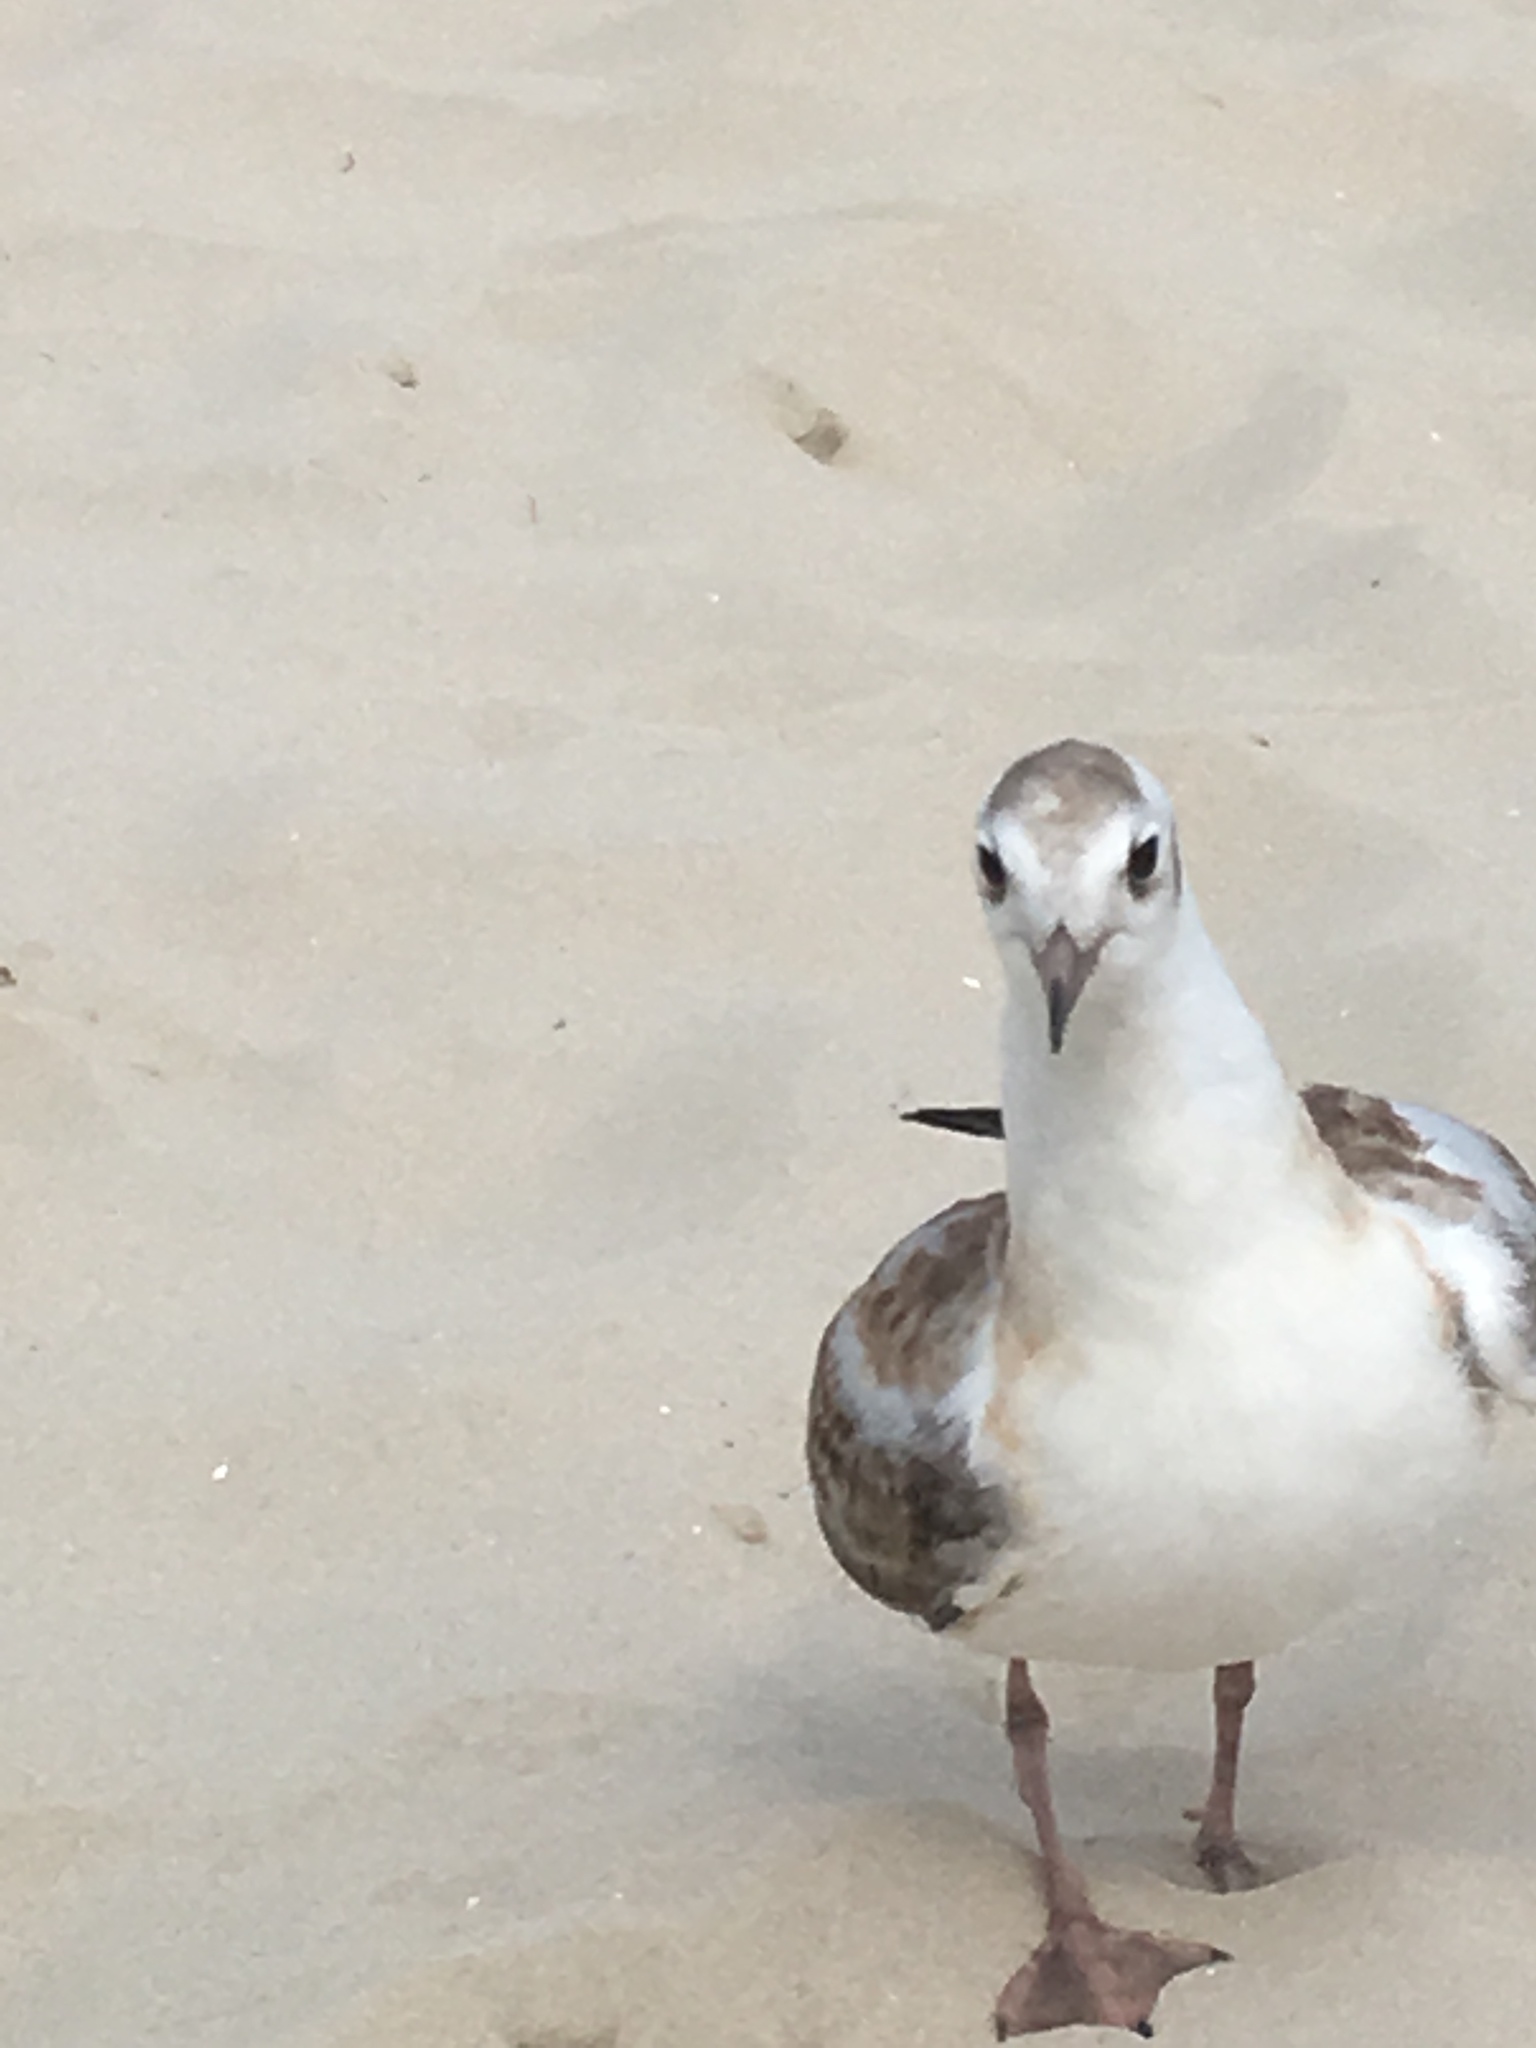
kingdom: Animalia
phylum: Chordata
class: Aves
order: Charadriiformes
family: Laridae
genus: Chroicocephalus
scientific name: Chroicocephalus ridibundus
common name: Black-headed gull
